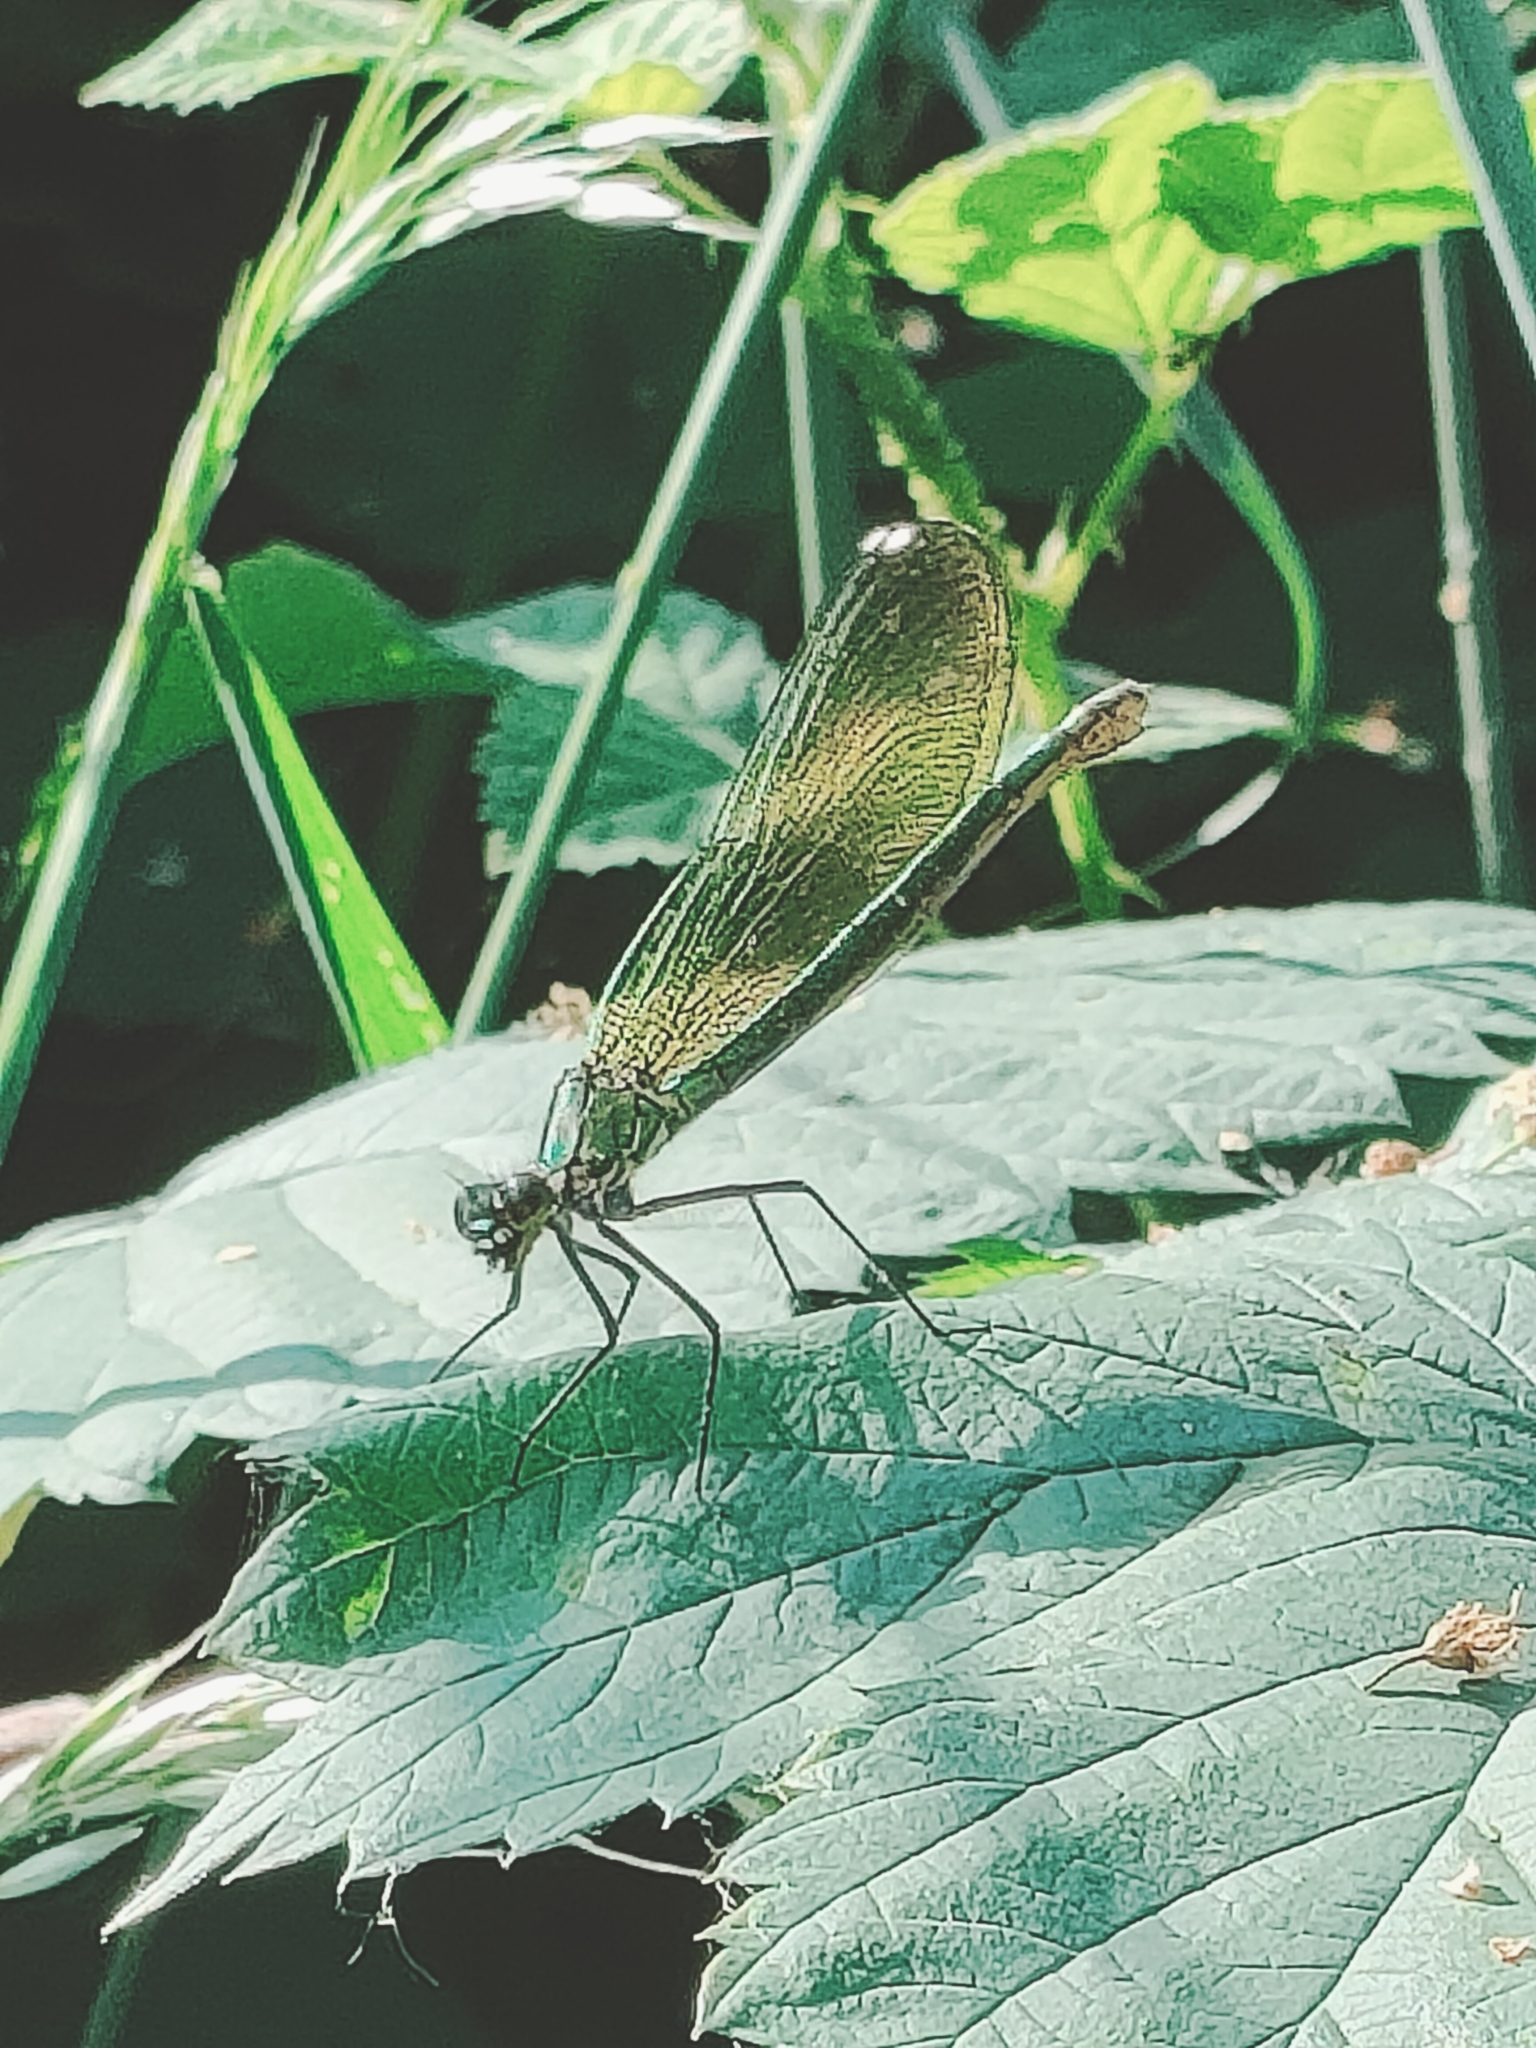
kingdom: Animalia
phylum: Arthropoda
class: Insecta
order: Odonata
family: Calopterygidae
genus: Calopteryx
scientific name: Calopteryx splendens
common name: Banded demoiselle
